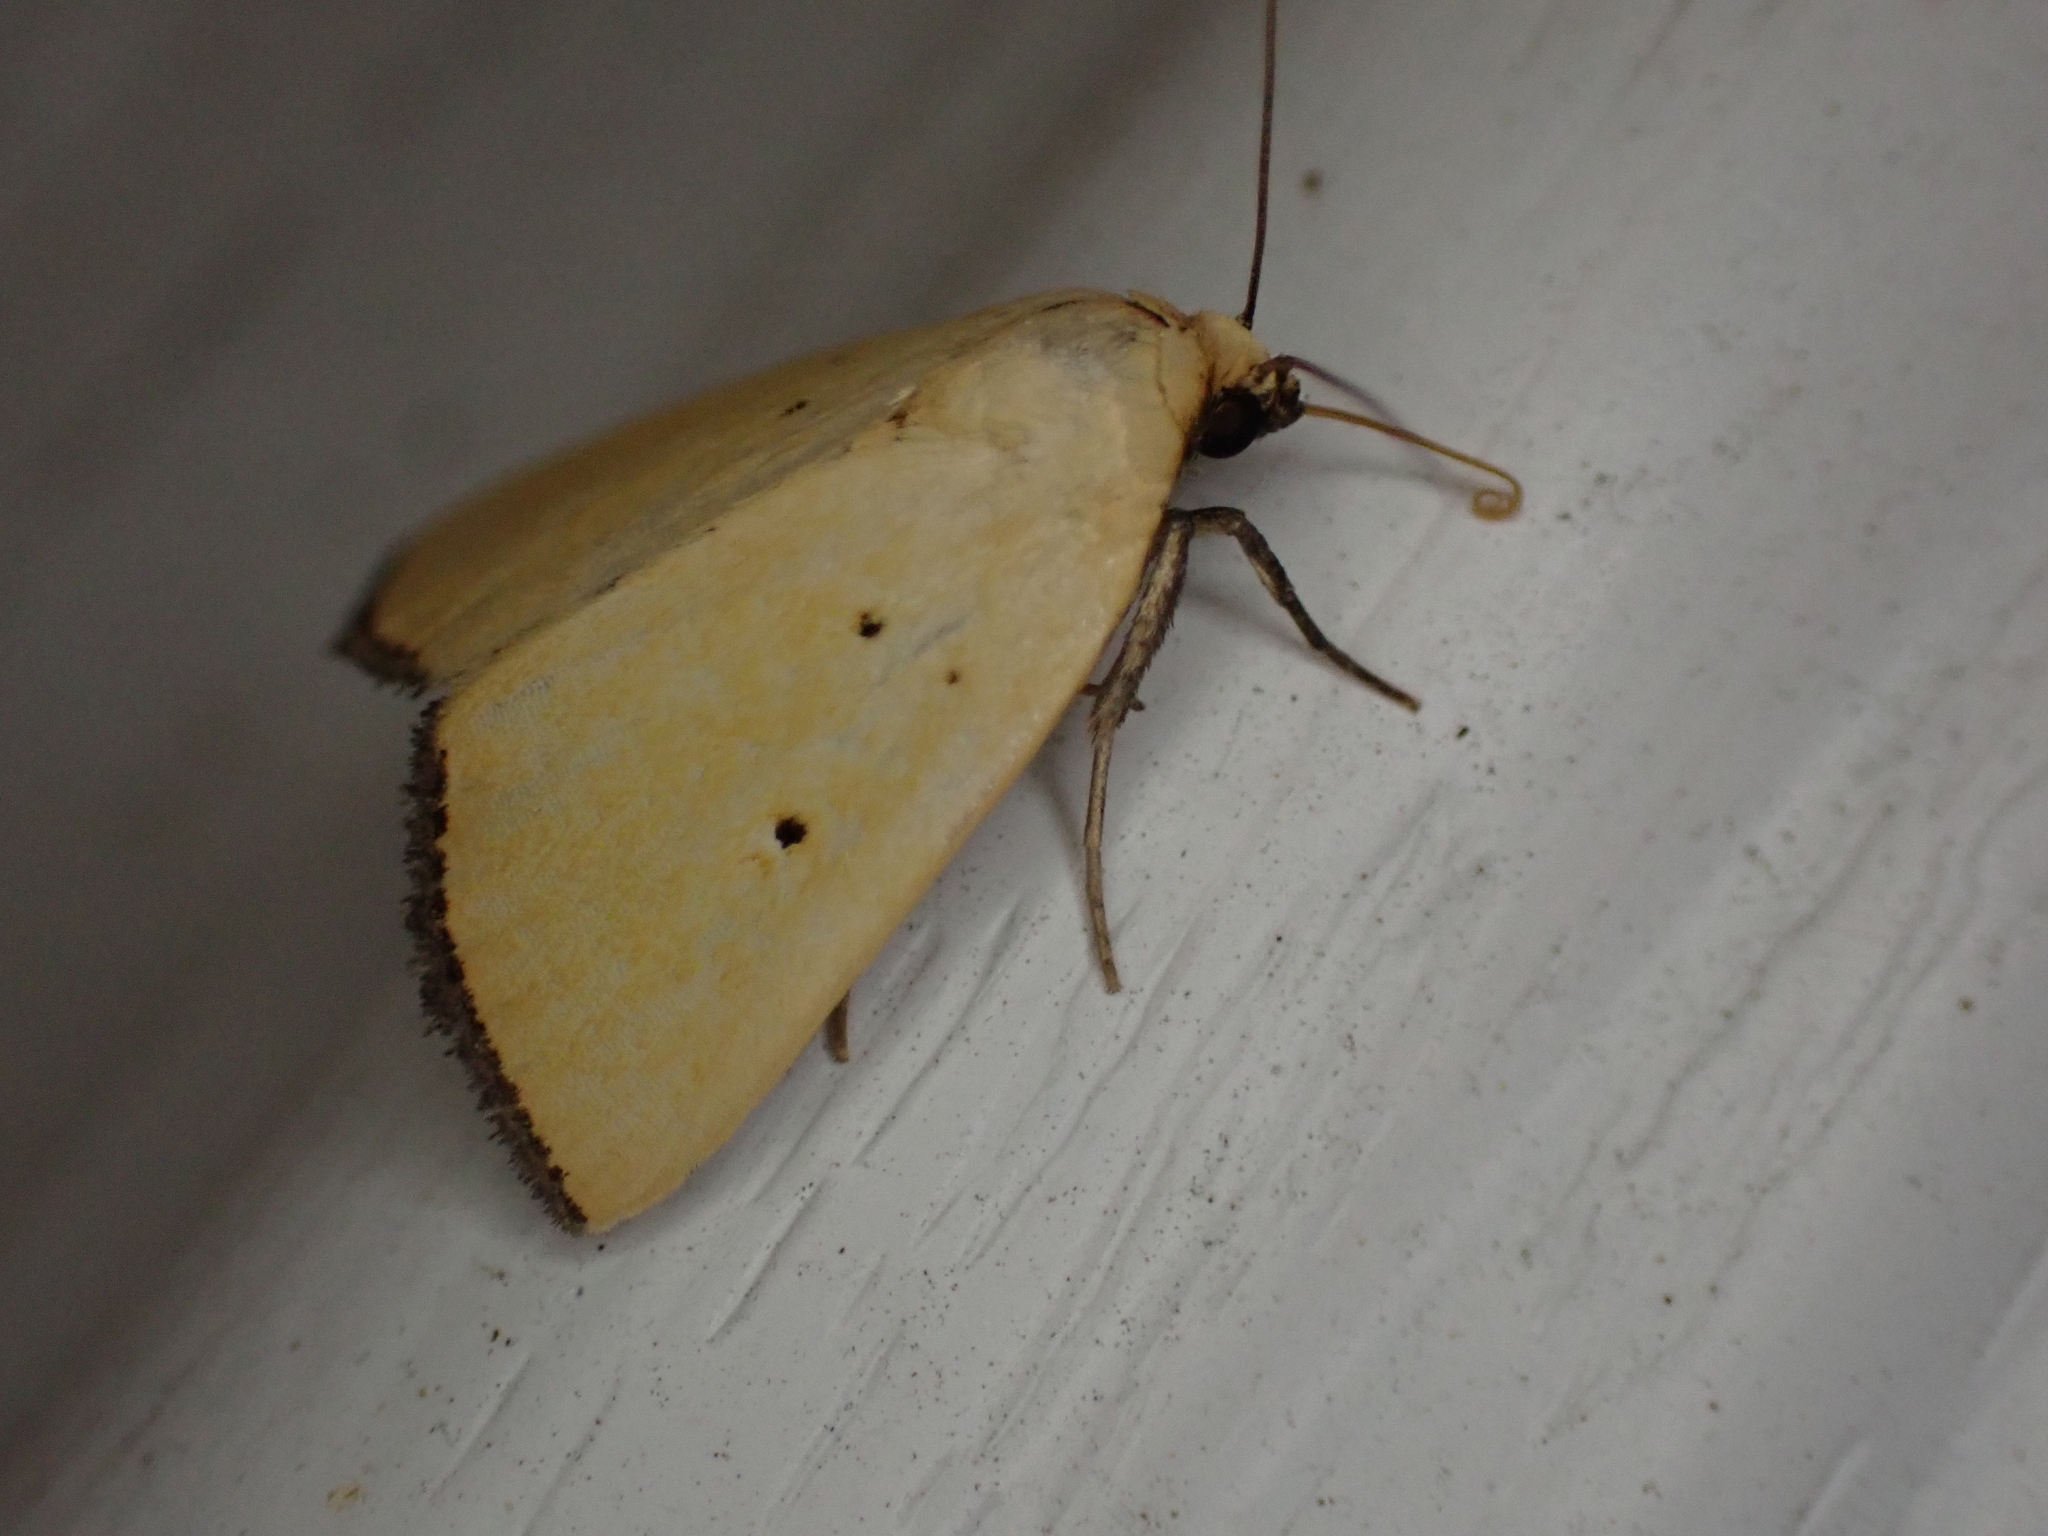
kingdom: Animalia
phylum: Arthropoda
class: Insecta
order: Lepidoptera
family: Noctuidae
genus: Marimatha
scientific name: Marimatha nigrofimbria
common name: Black-bordered lemon moth
